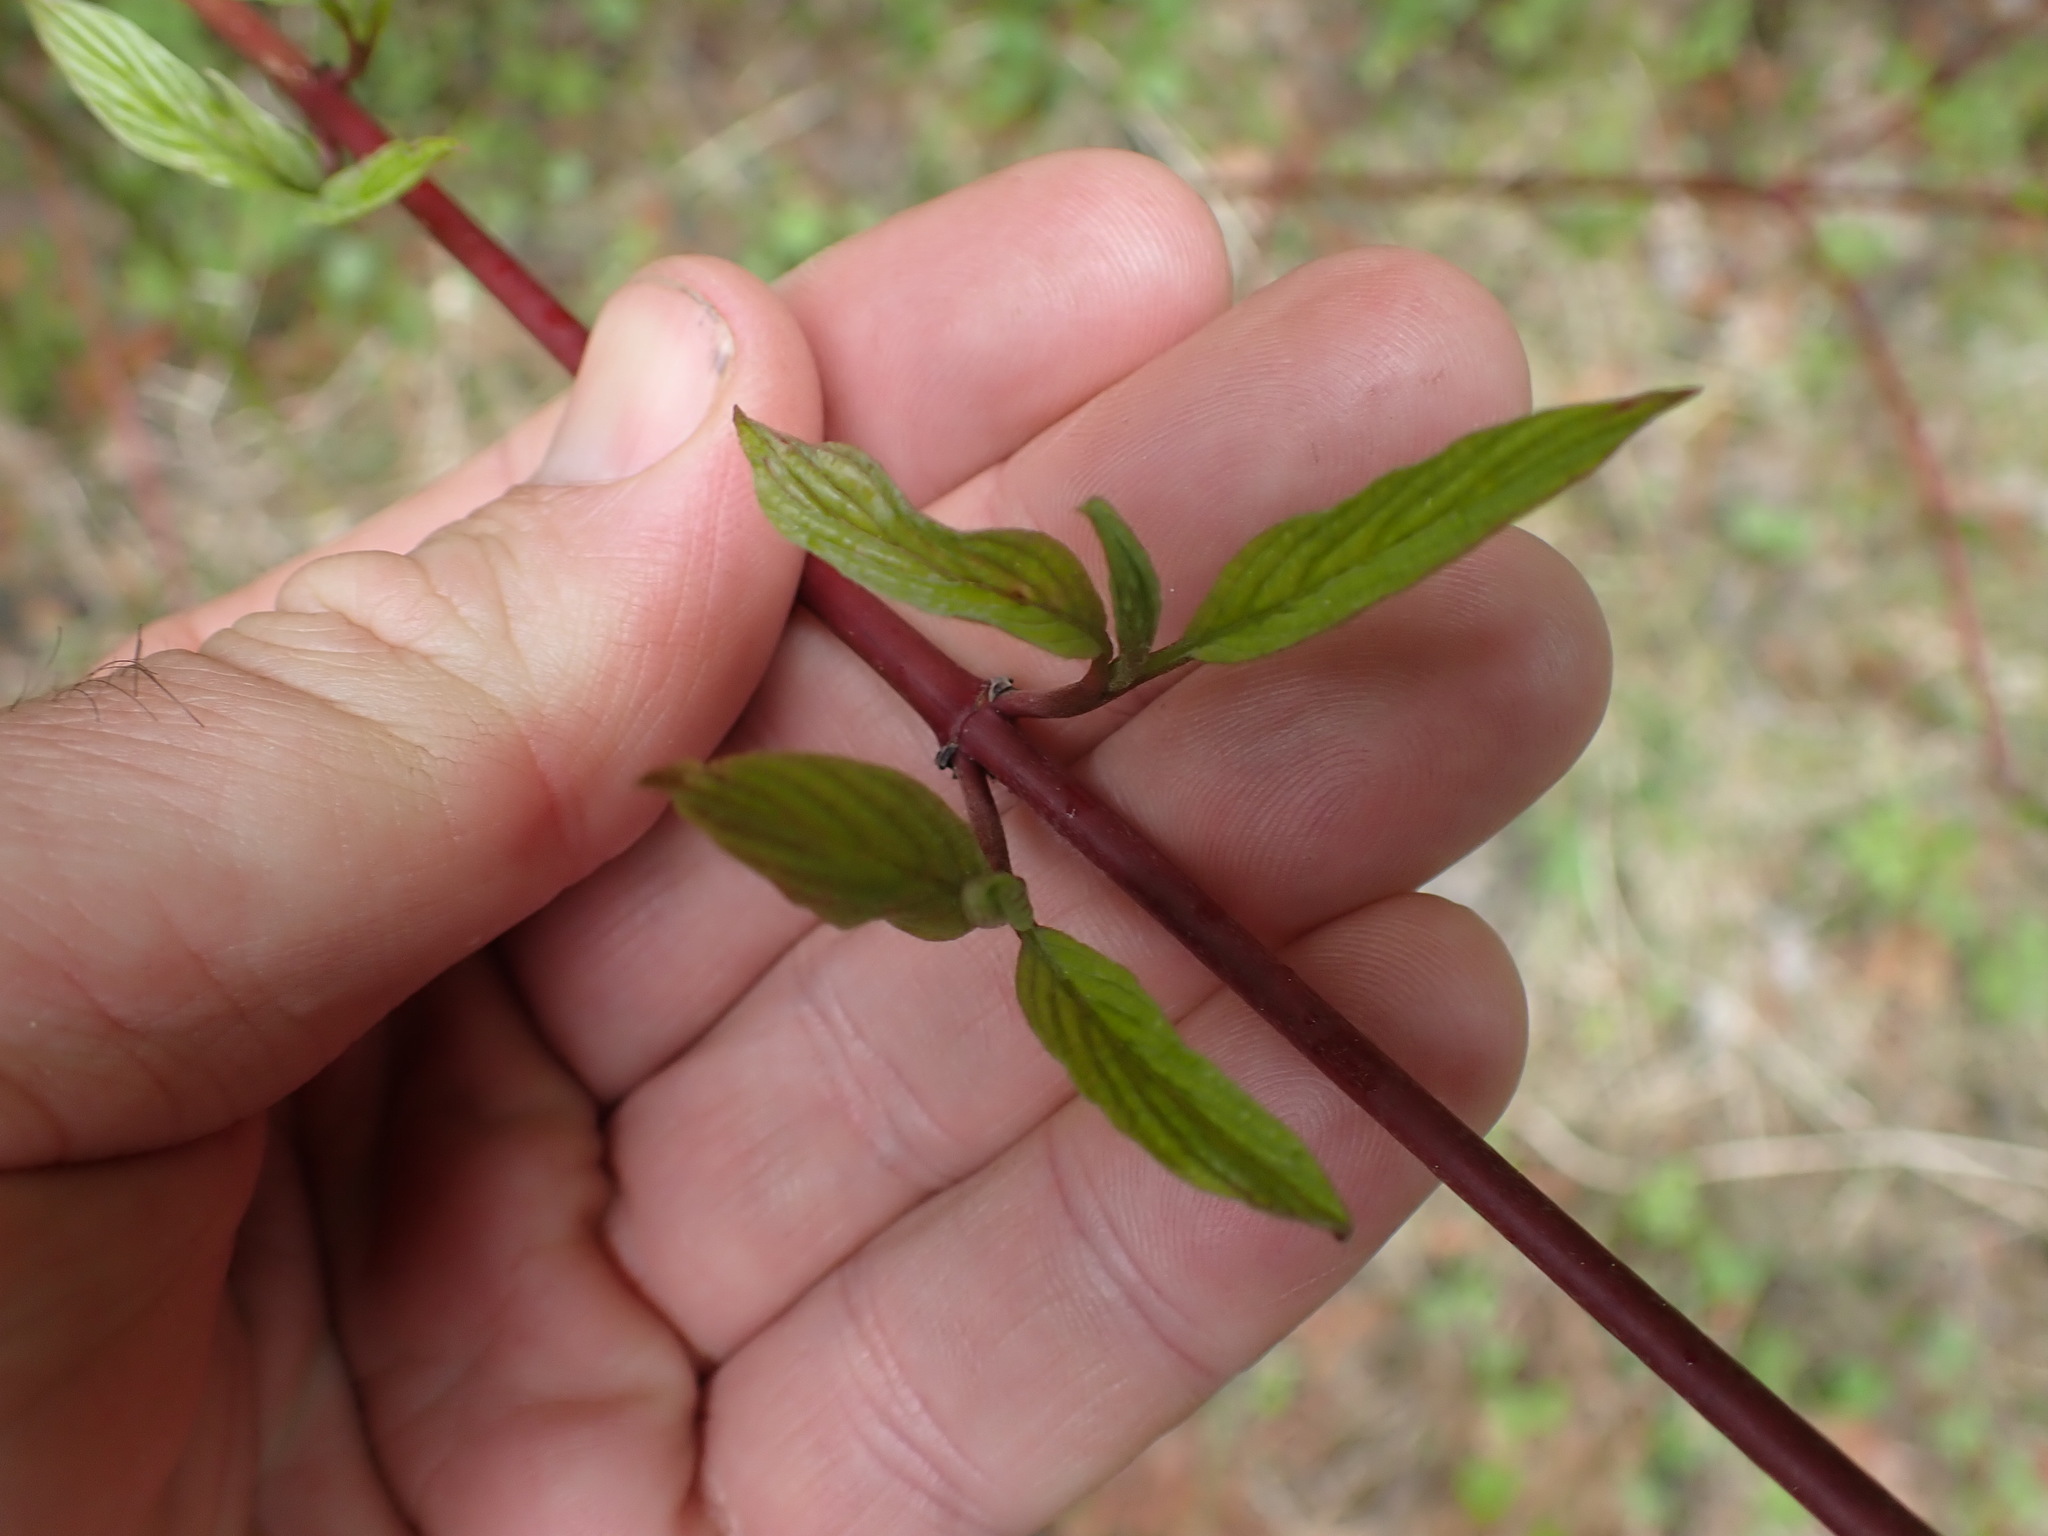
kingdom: Plantae
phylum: Tracheophyta
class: Magnoliopsida
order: Cornales
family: Cornaceae
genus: Cornus
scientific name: Cornus sericea
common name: Red-osier dogwood
